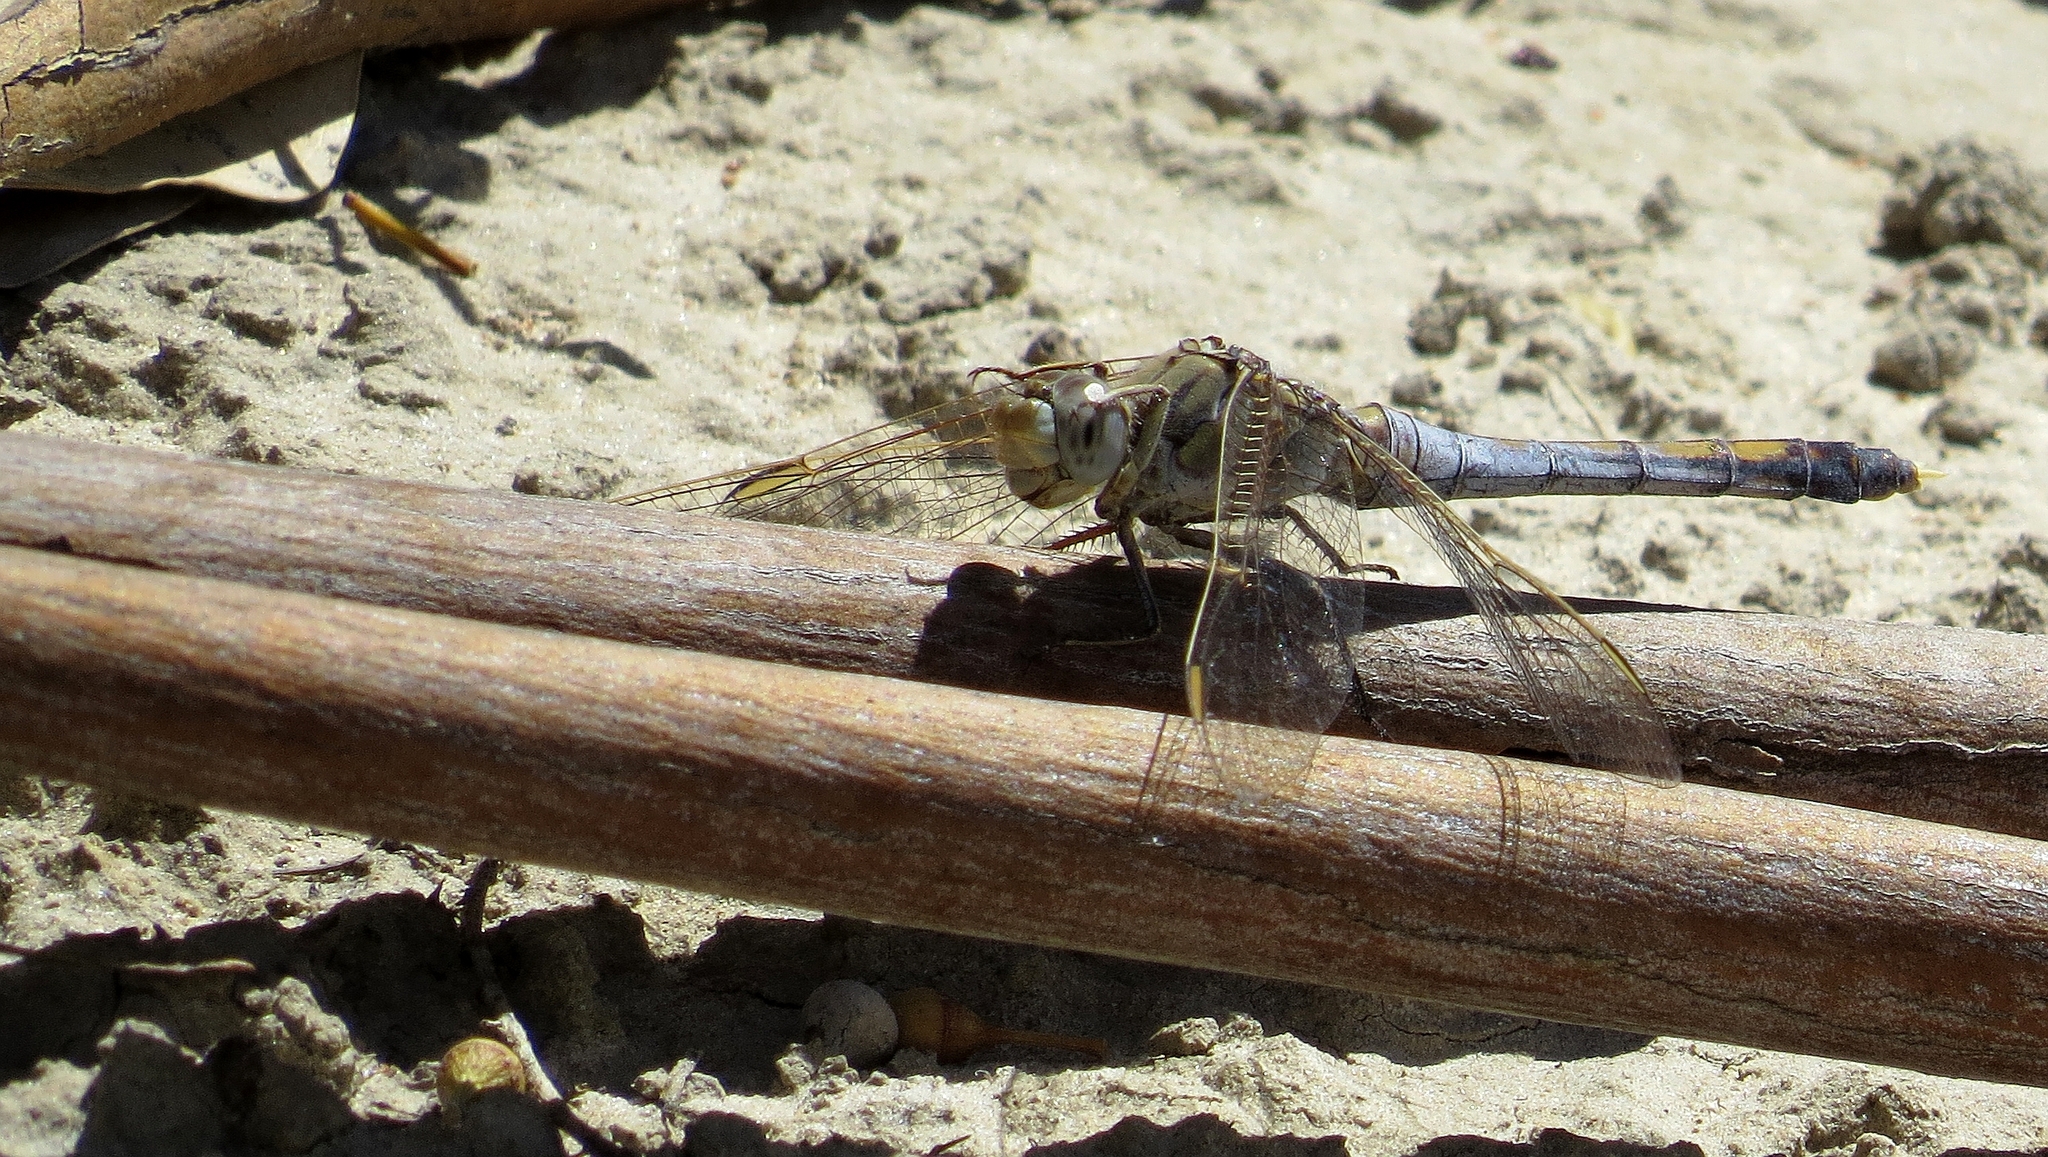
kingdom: Animalia
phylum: Arthropoda
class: Insecta
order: Odonata
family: Libellulidae
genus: Orthetrum
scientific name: Orthetrum caledonicum
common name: Blue skimmer
